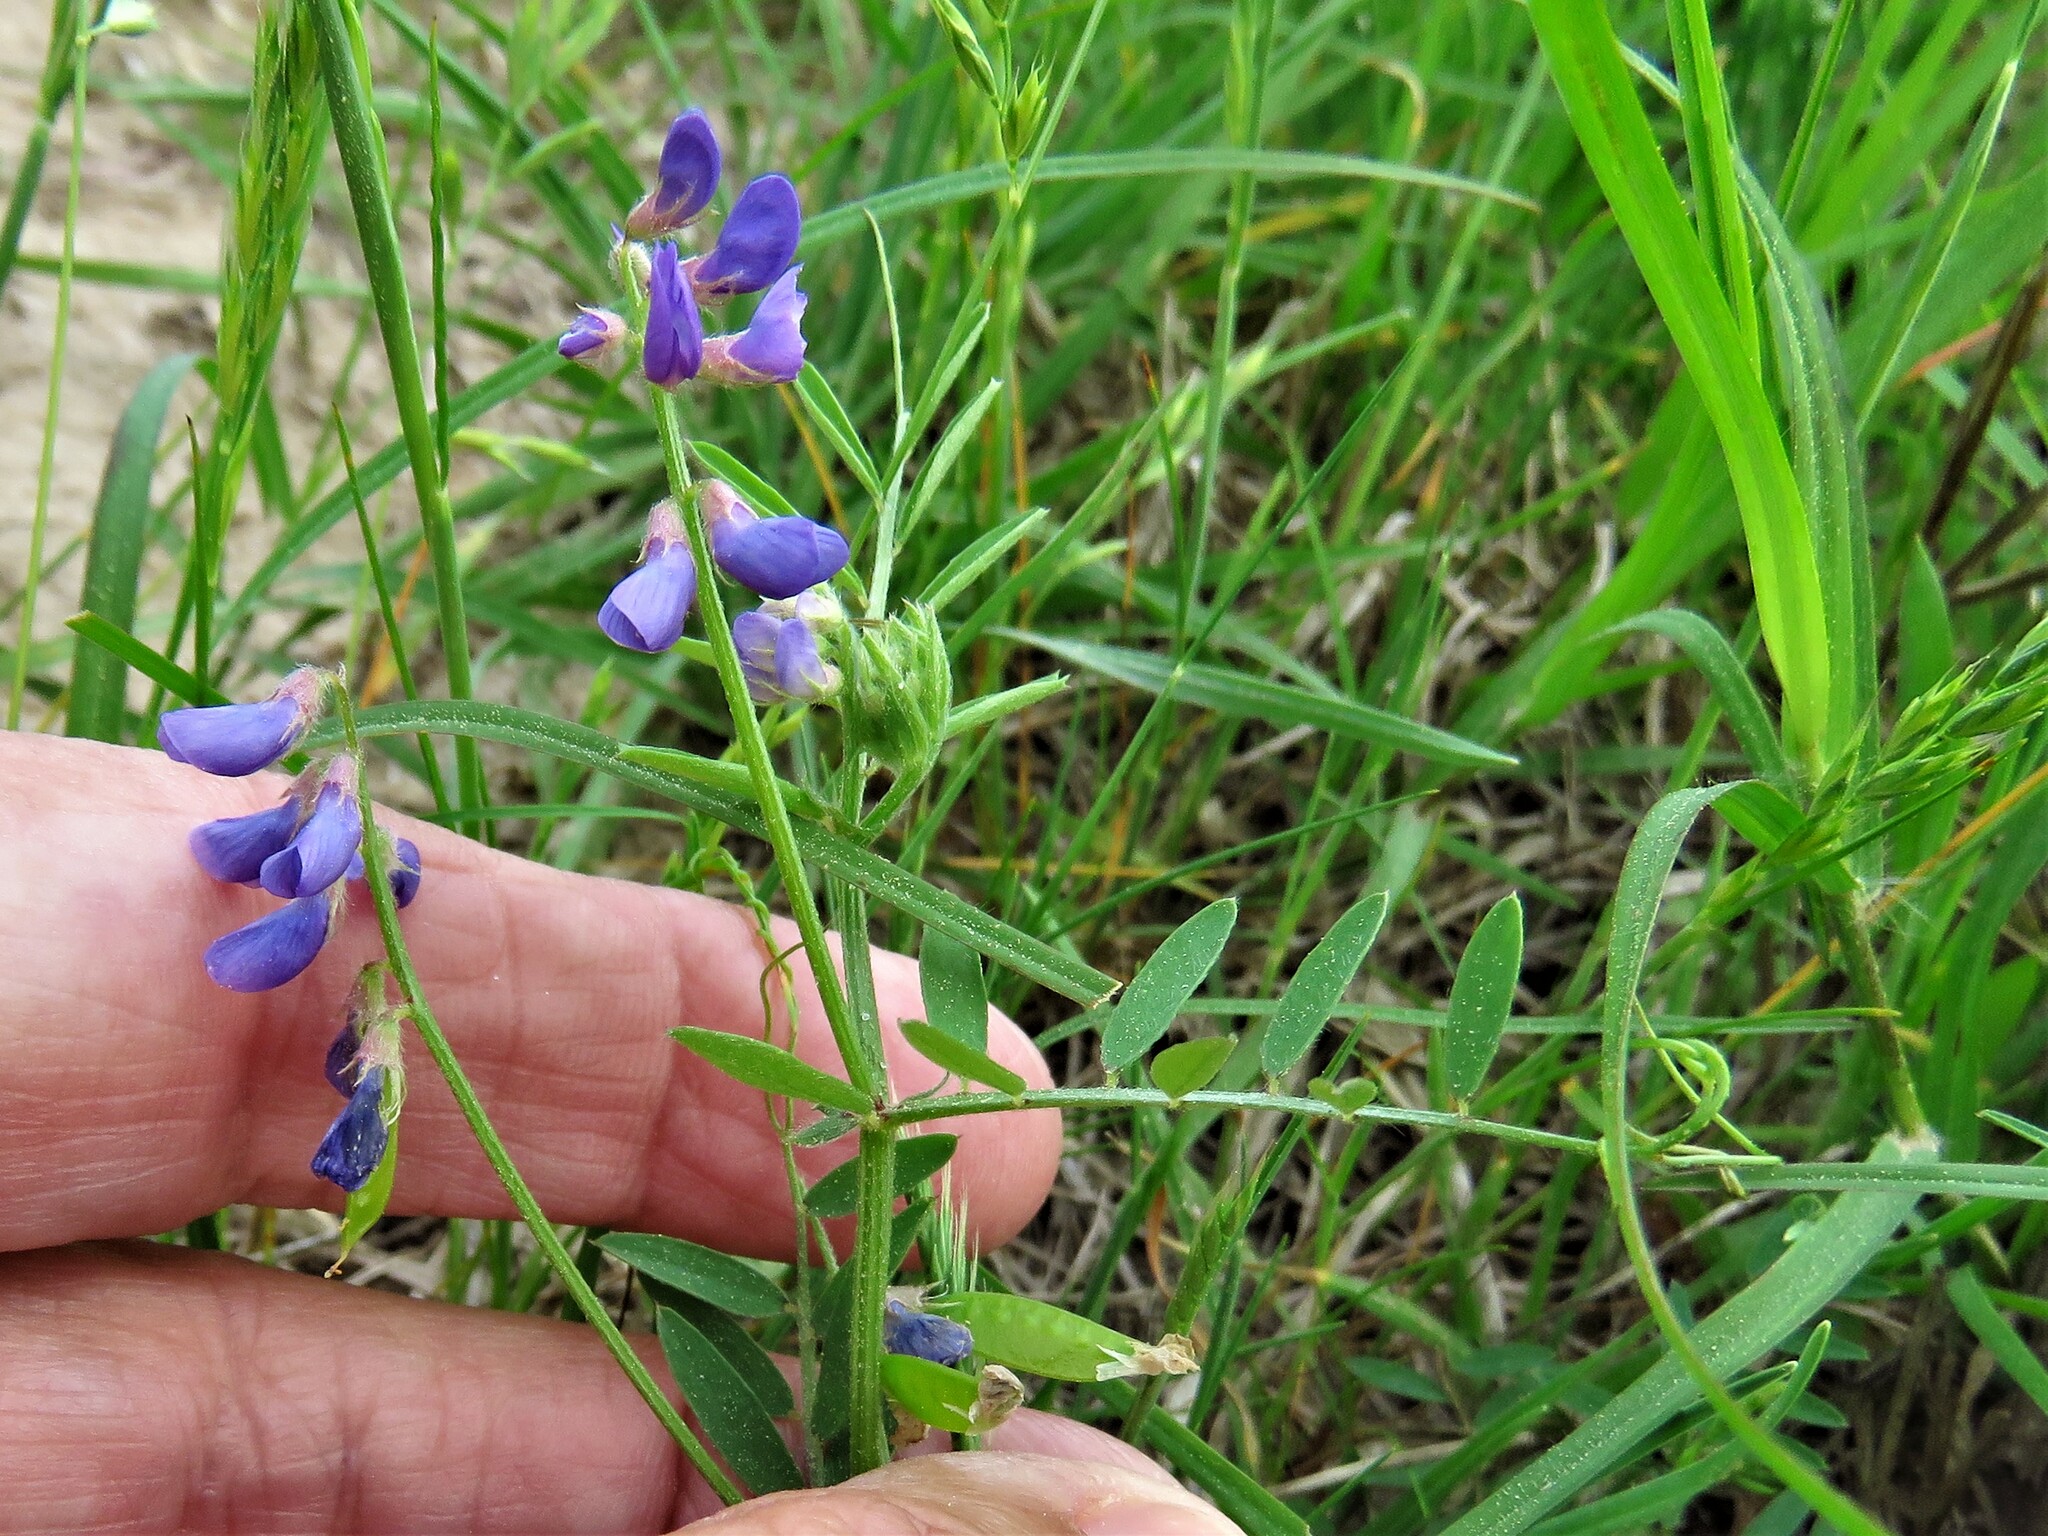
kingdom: Plantae
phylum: Tracheophyta
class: Magnoliopsida
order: Fabales
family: Fabaceae
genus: Vicia
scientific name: Vicia ludoviciana
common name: Louisiana vetch
